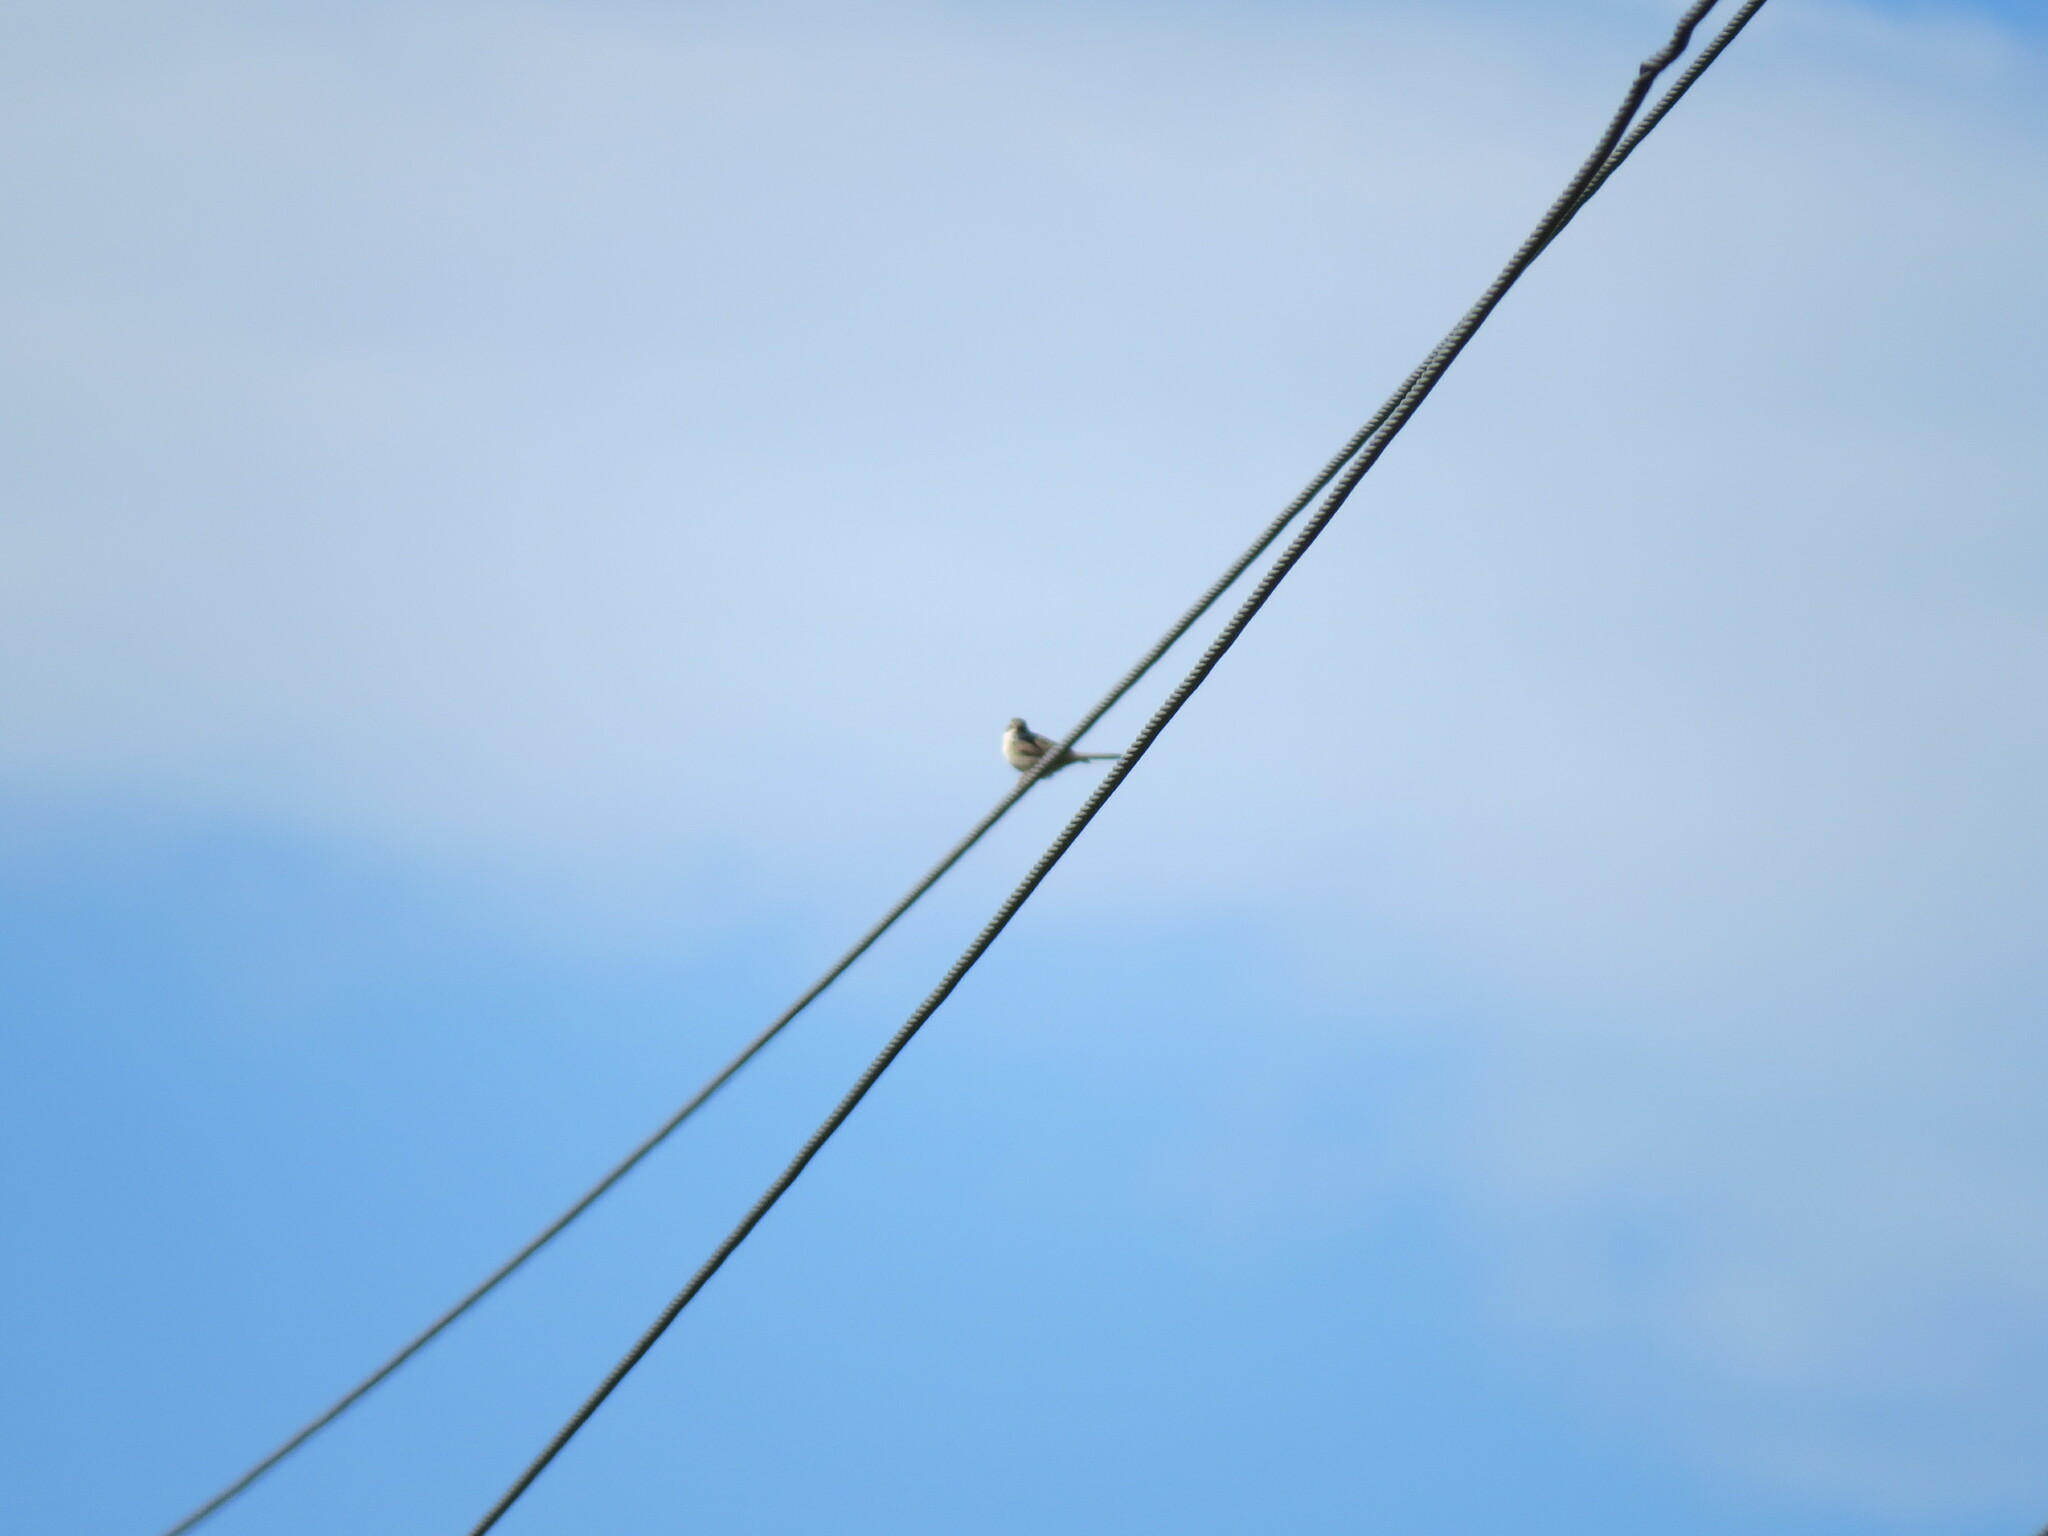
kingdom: Animalia
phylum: Chordata
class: Aves
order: Passeriformes
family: Sylviidae
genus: Sylvia
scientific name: Sylvia communis
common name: Common whitethroat
